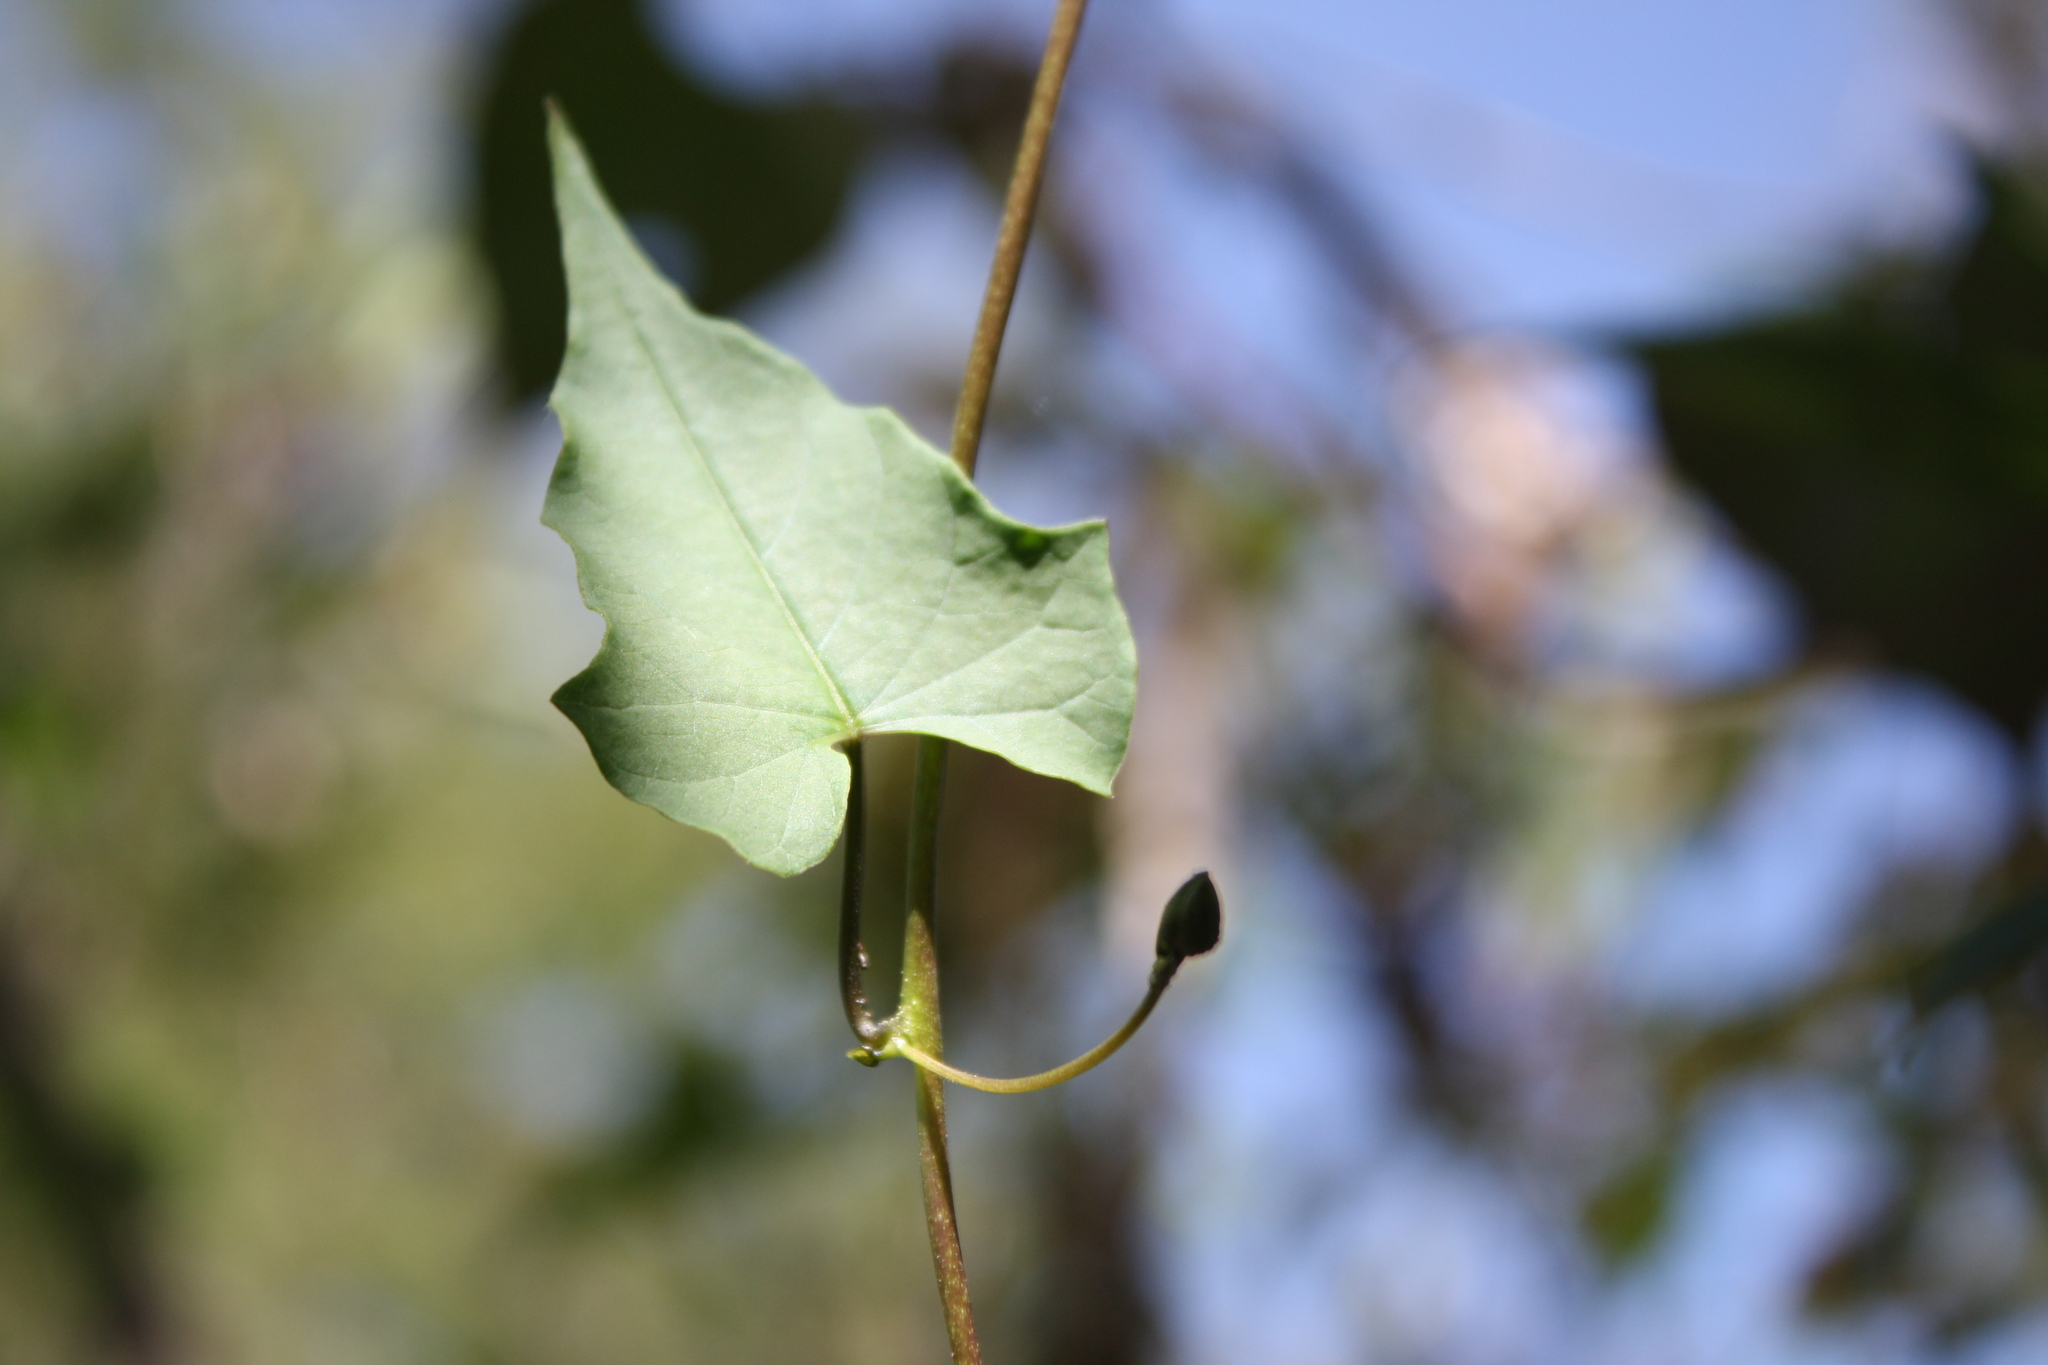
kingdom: Plantae
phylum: Tracheophyta
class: Magnoliopsida
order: Solanales
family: Convolvulaceae
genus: Ipomoea
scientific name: Ipomoea dumetorum
